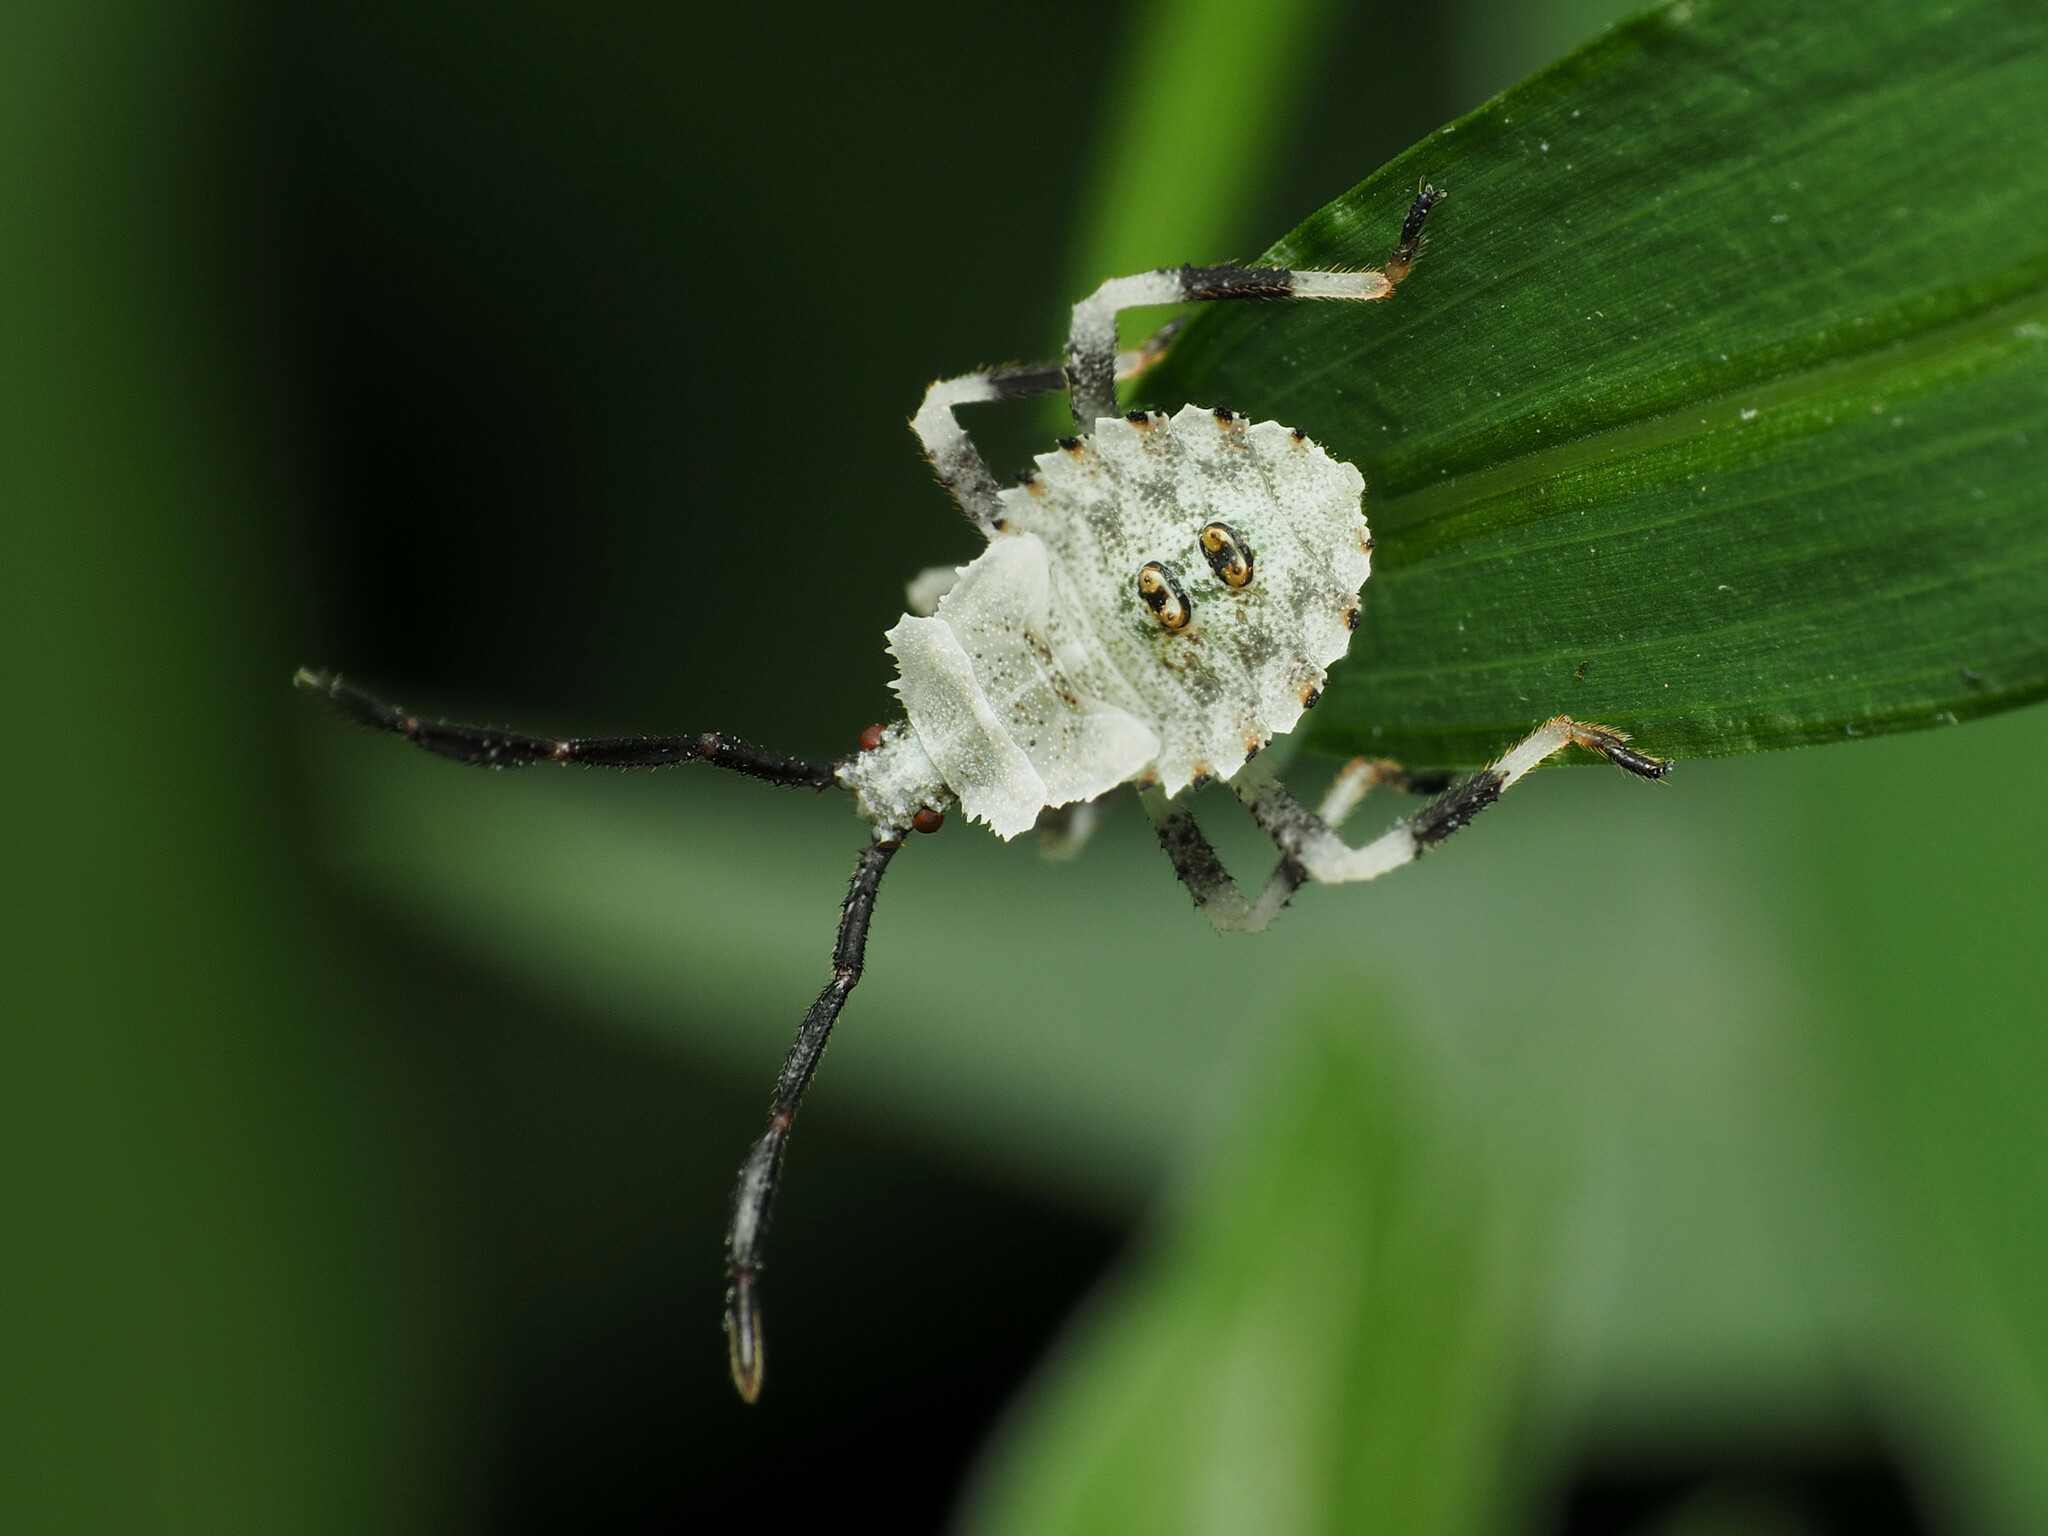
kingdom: Animalia
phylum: Arthropoda
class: Insecta
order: Hemiptera
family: Coreidae
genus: Anasa
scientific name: Anasa armigera
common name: Horned squash bug
